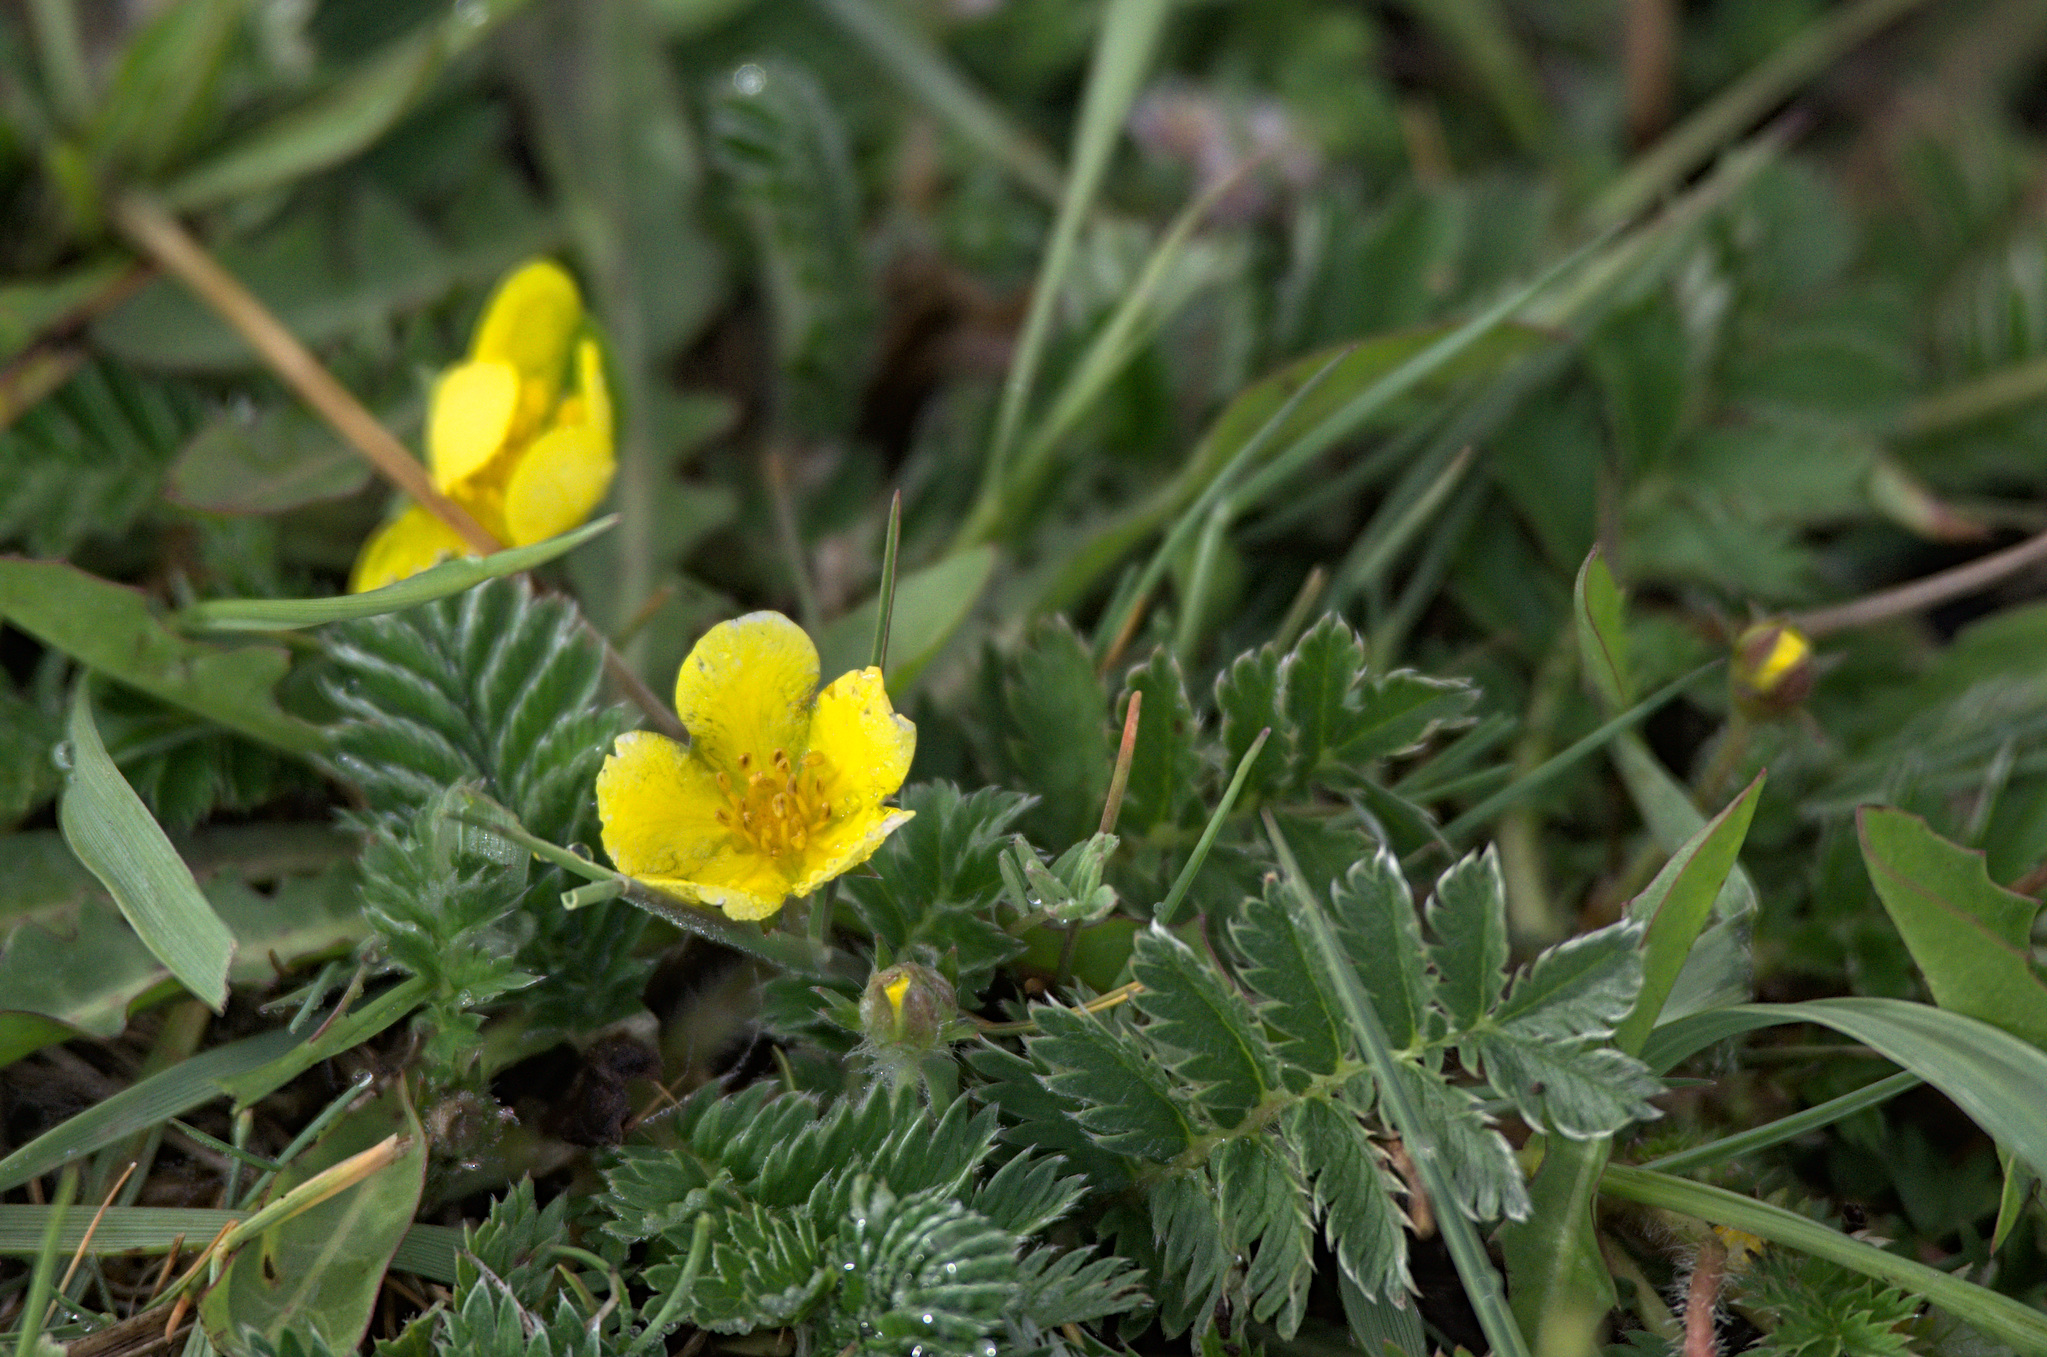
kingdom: Plantae
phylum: Tracheophyta
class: Magnoliopsida
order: Rosales
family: Rosaceae
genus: Argentina
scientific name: Argentina anserina
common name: Common silverweed
